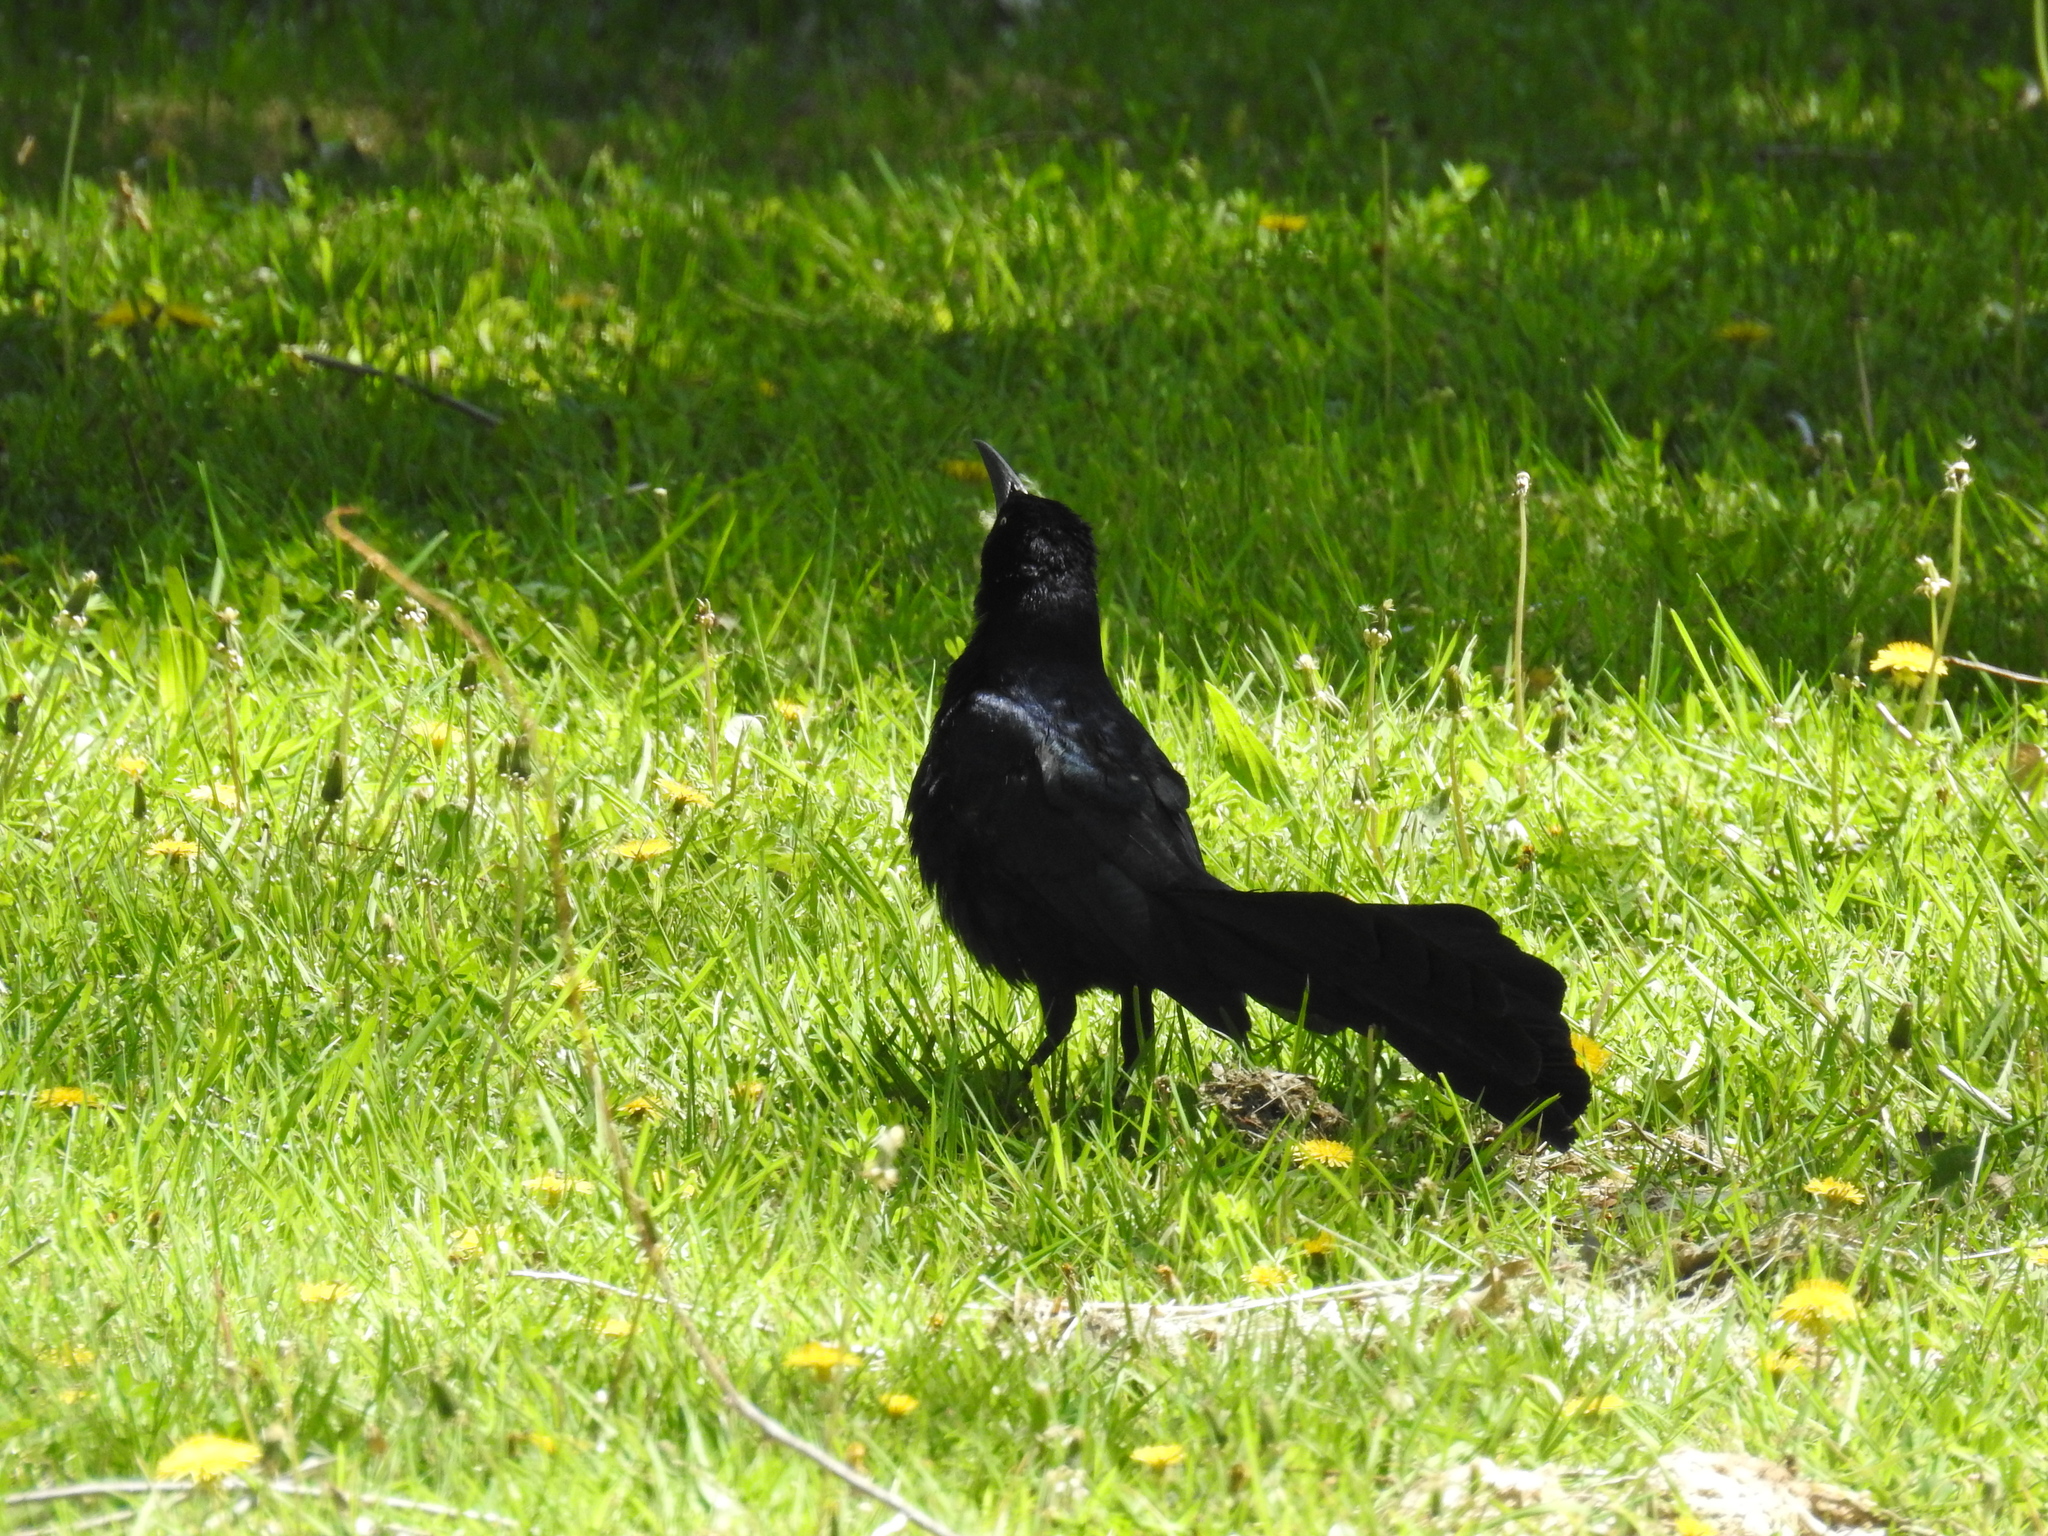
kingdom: Animalia
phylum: Chordata
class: Aves
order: Passeriformes
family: Icteridae
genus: Quiscalus
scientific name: Quiscalus mexicanus
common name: Great-tailed grackle
